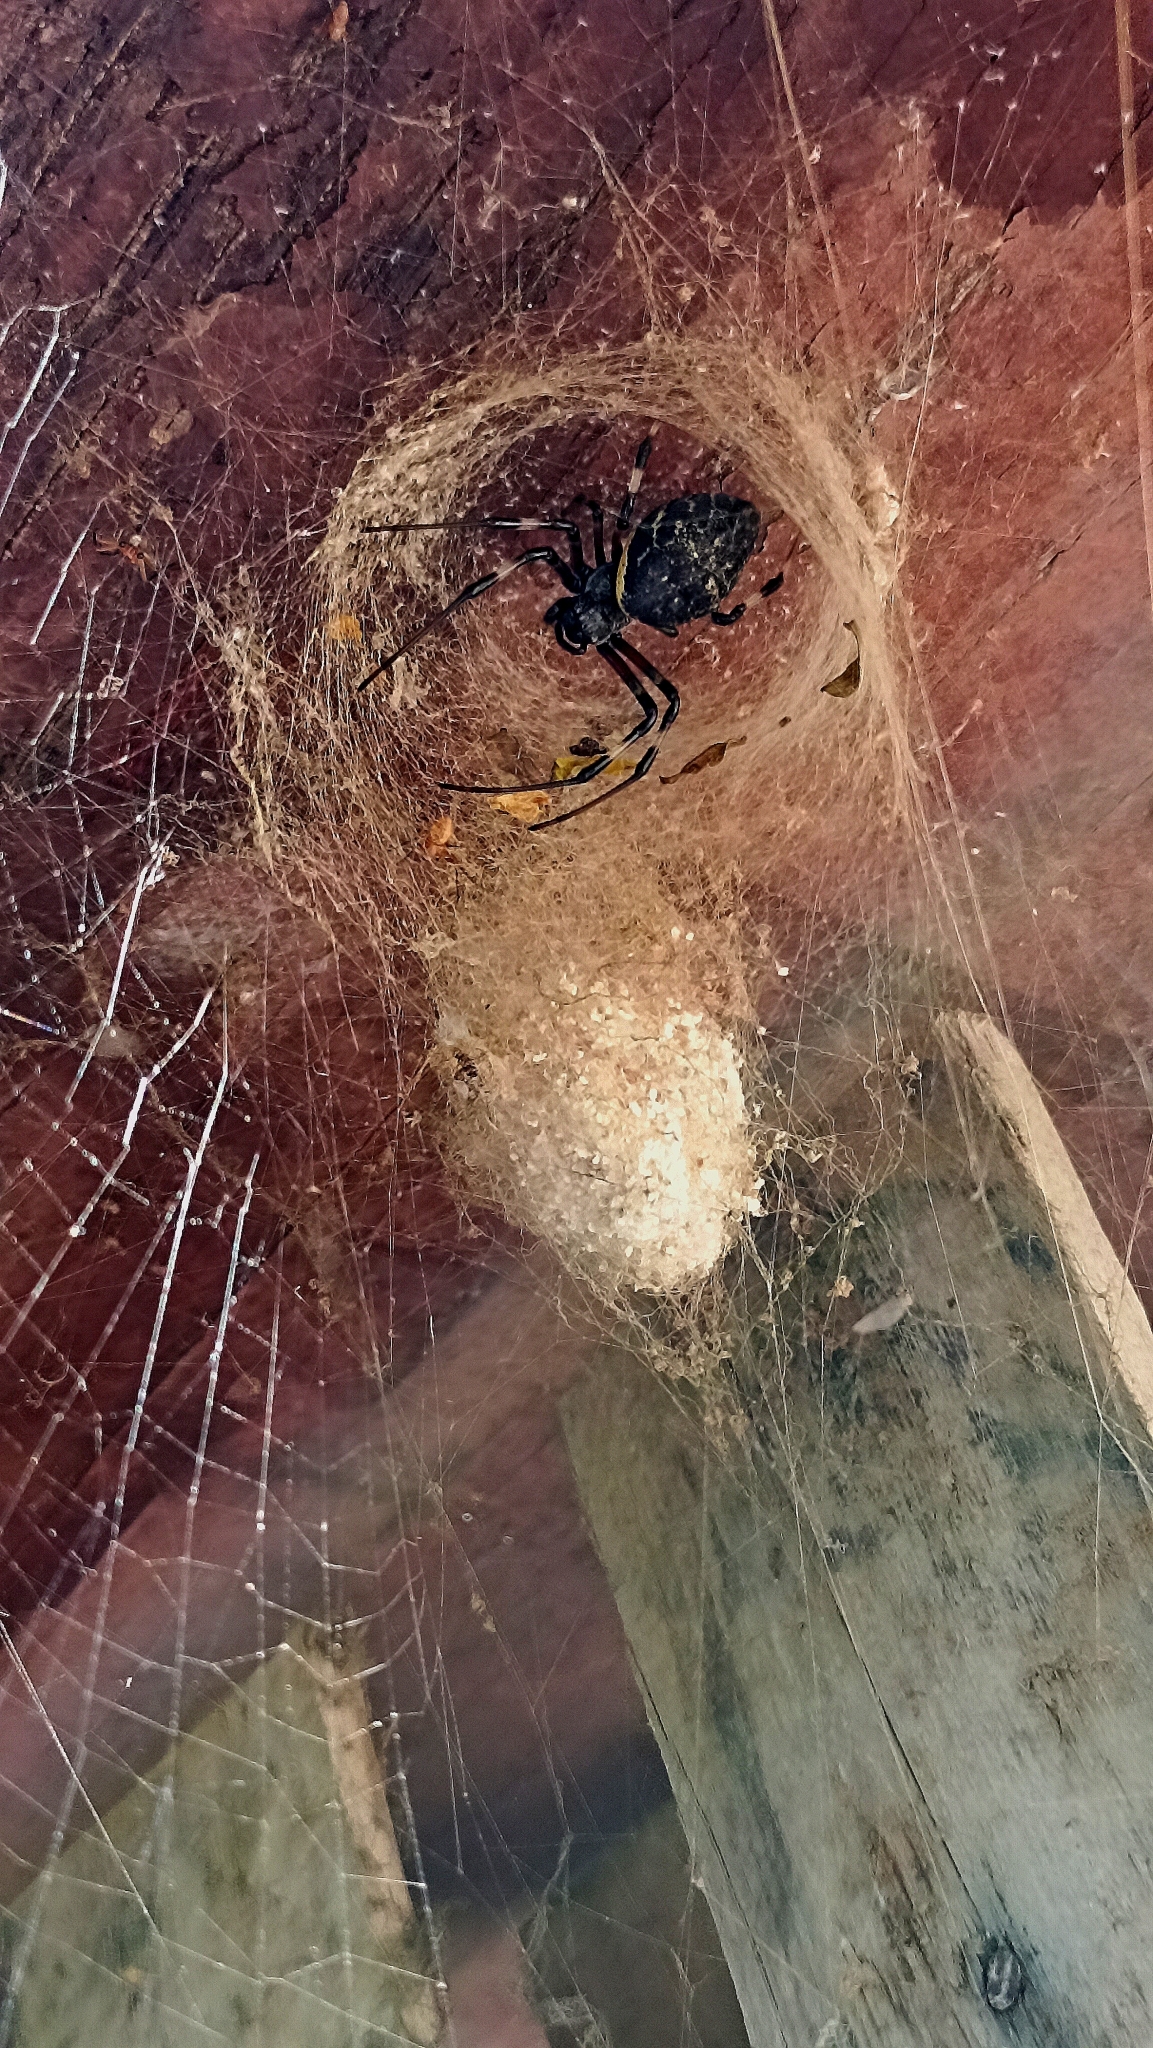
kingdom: Animalia
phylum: Arthropoda
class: Arachnida
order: Araneae
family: Araneidae
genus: Nephilingis
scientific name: Nephilingis cruentata
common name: African hermit spider
